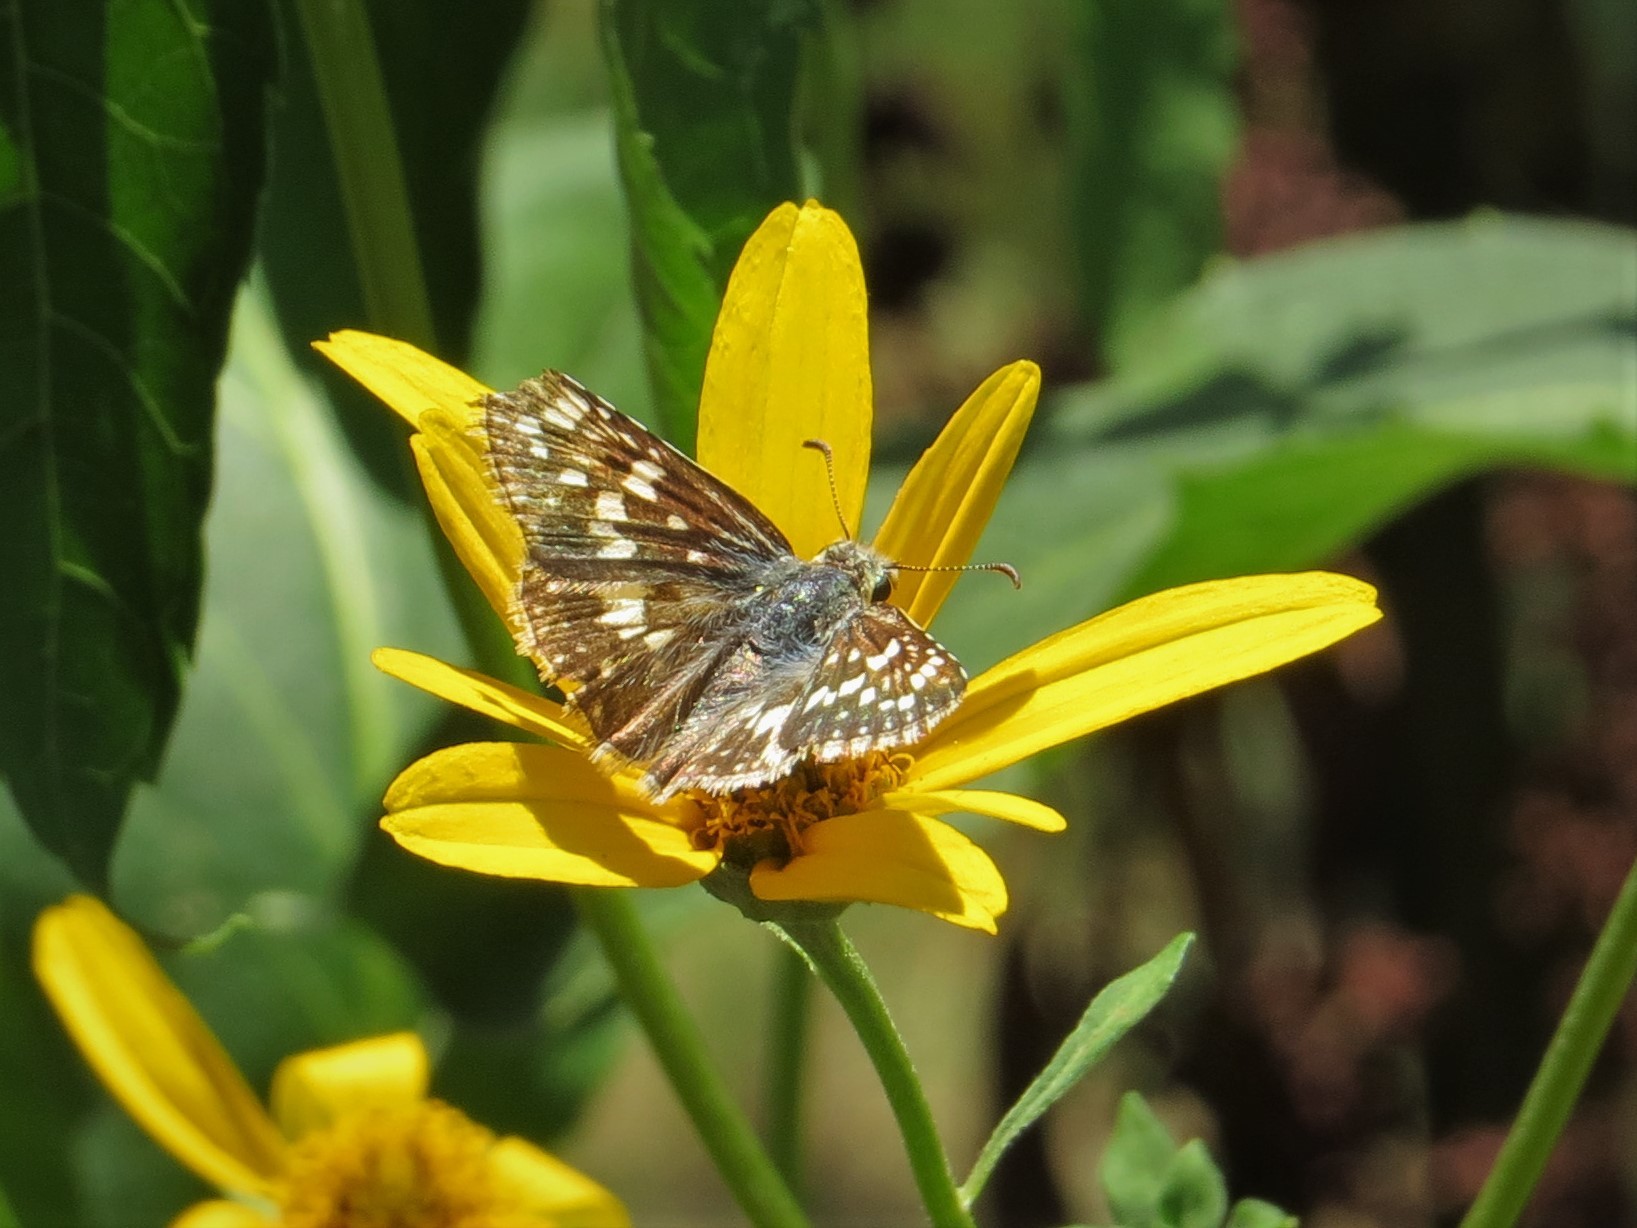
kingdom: Animalia
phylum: Arthropoda
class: Insecta
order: Lepidoptera
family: Hesperiidae
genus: Burnsius
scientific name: Burnsius communis
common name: Common checkered-skipper
